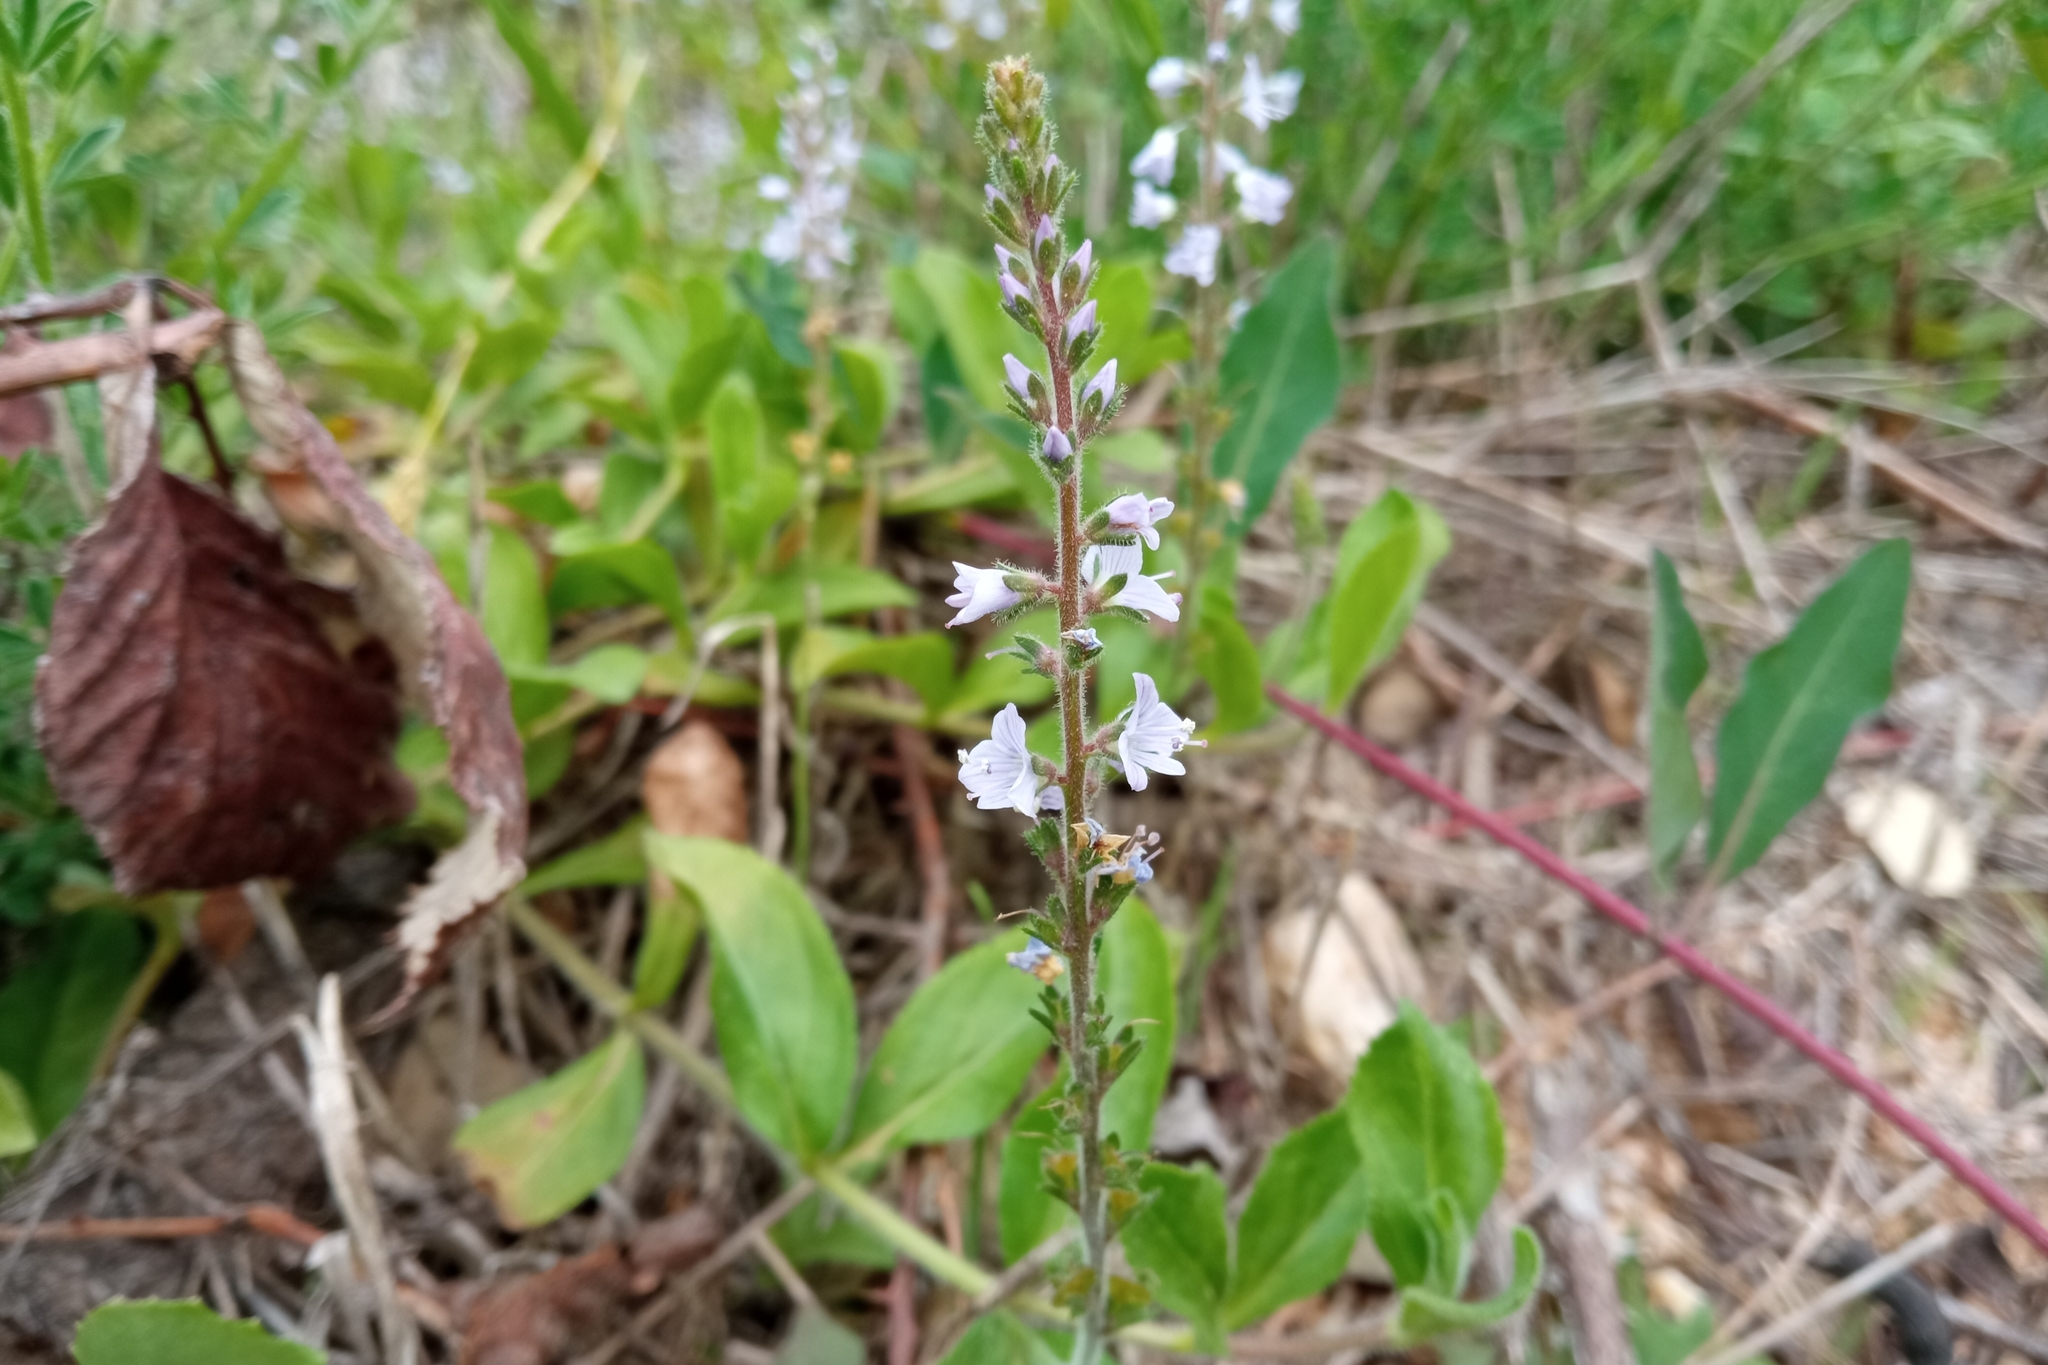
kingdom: Plantae
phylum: Tracheophyta
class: Magnoliopsida
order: Lamiales
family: Plantaginaceae
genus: Veronica
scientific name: Veronica officinalis
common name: Common speedwell
